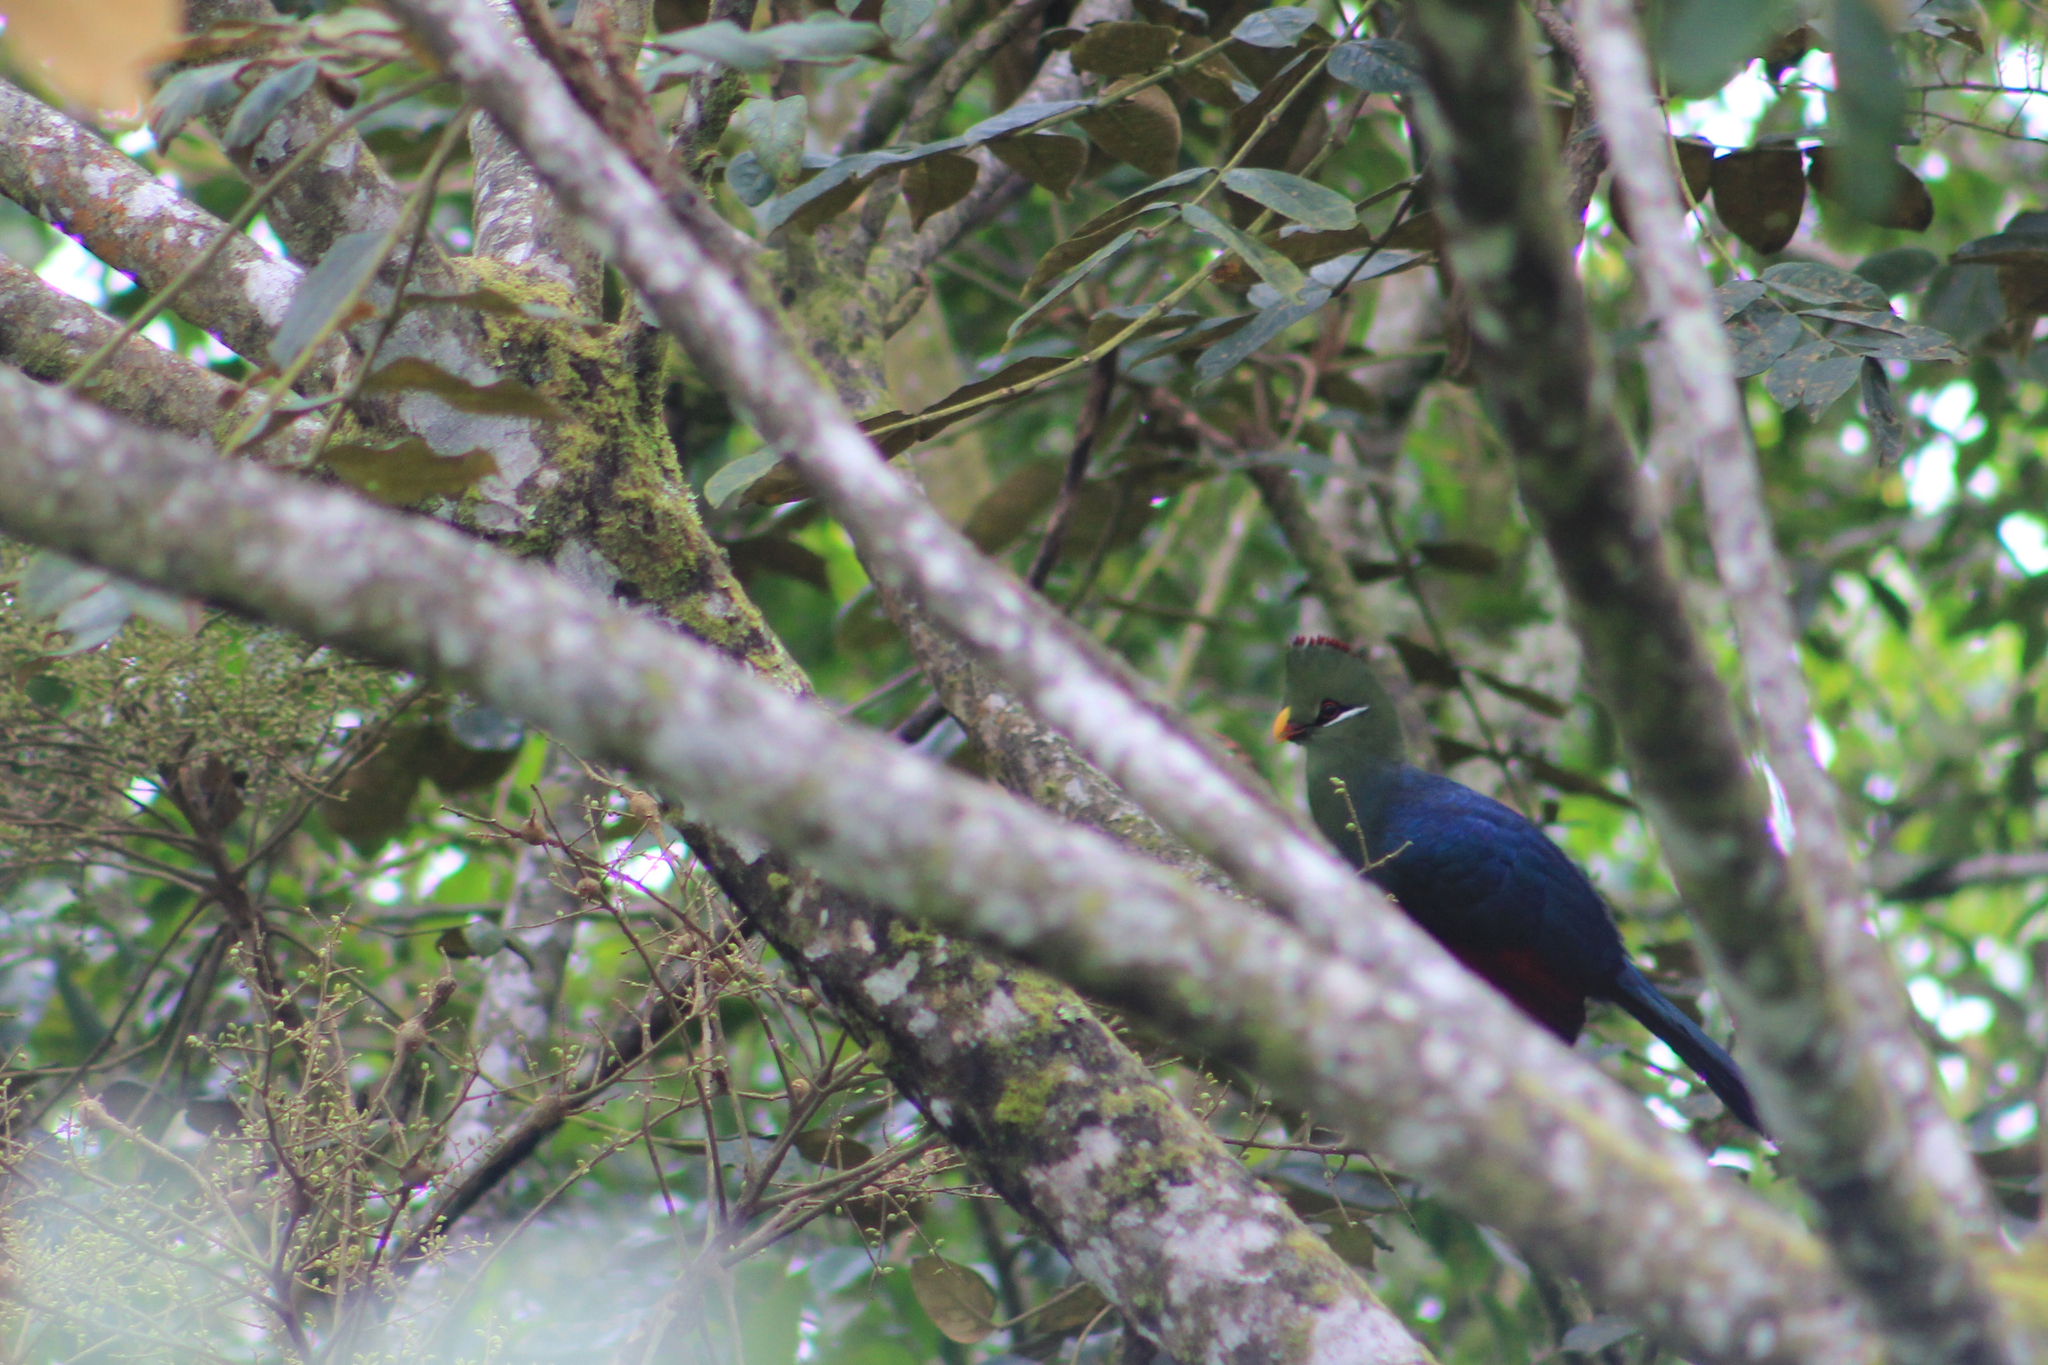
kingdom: Animalia
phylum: Chordata
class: Aves
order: Musophagiformes
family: Musophagidae
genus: Tauraco
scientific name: Tauraco macrorhynchus
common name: Yellow-billed turaco
